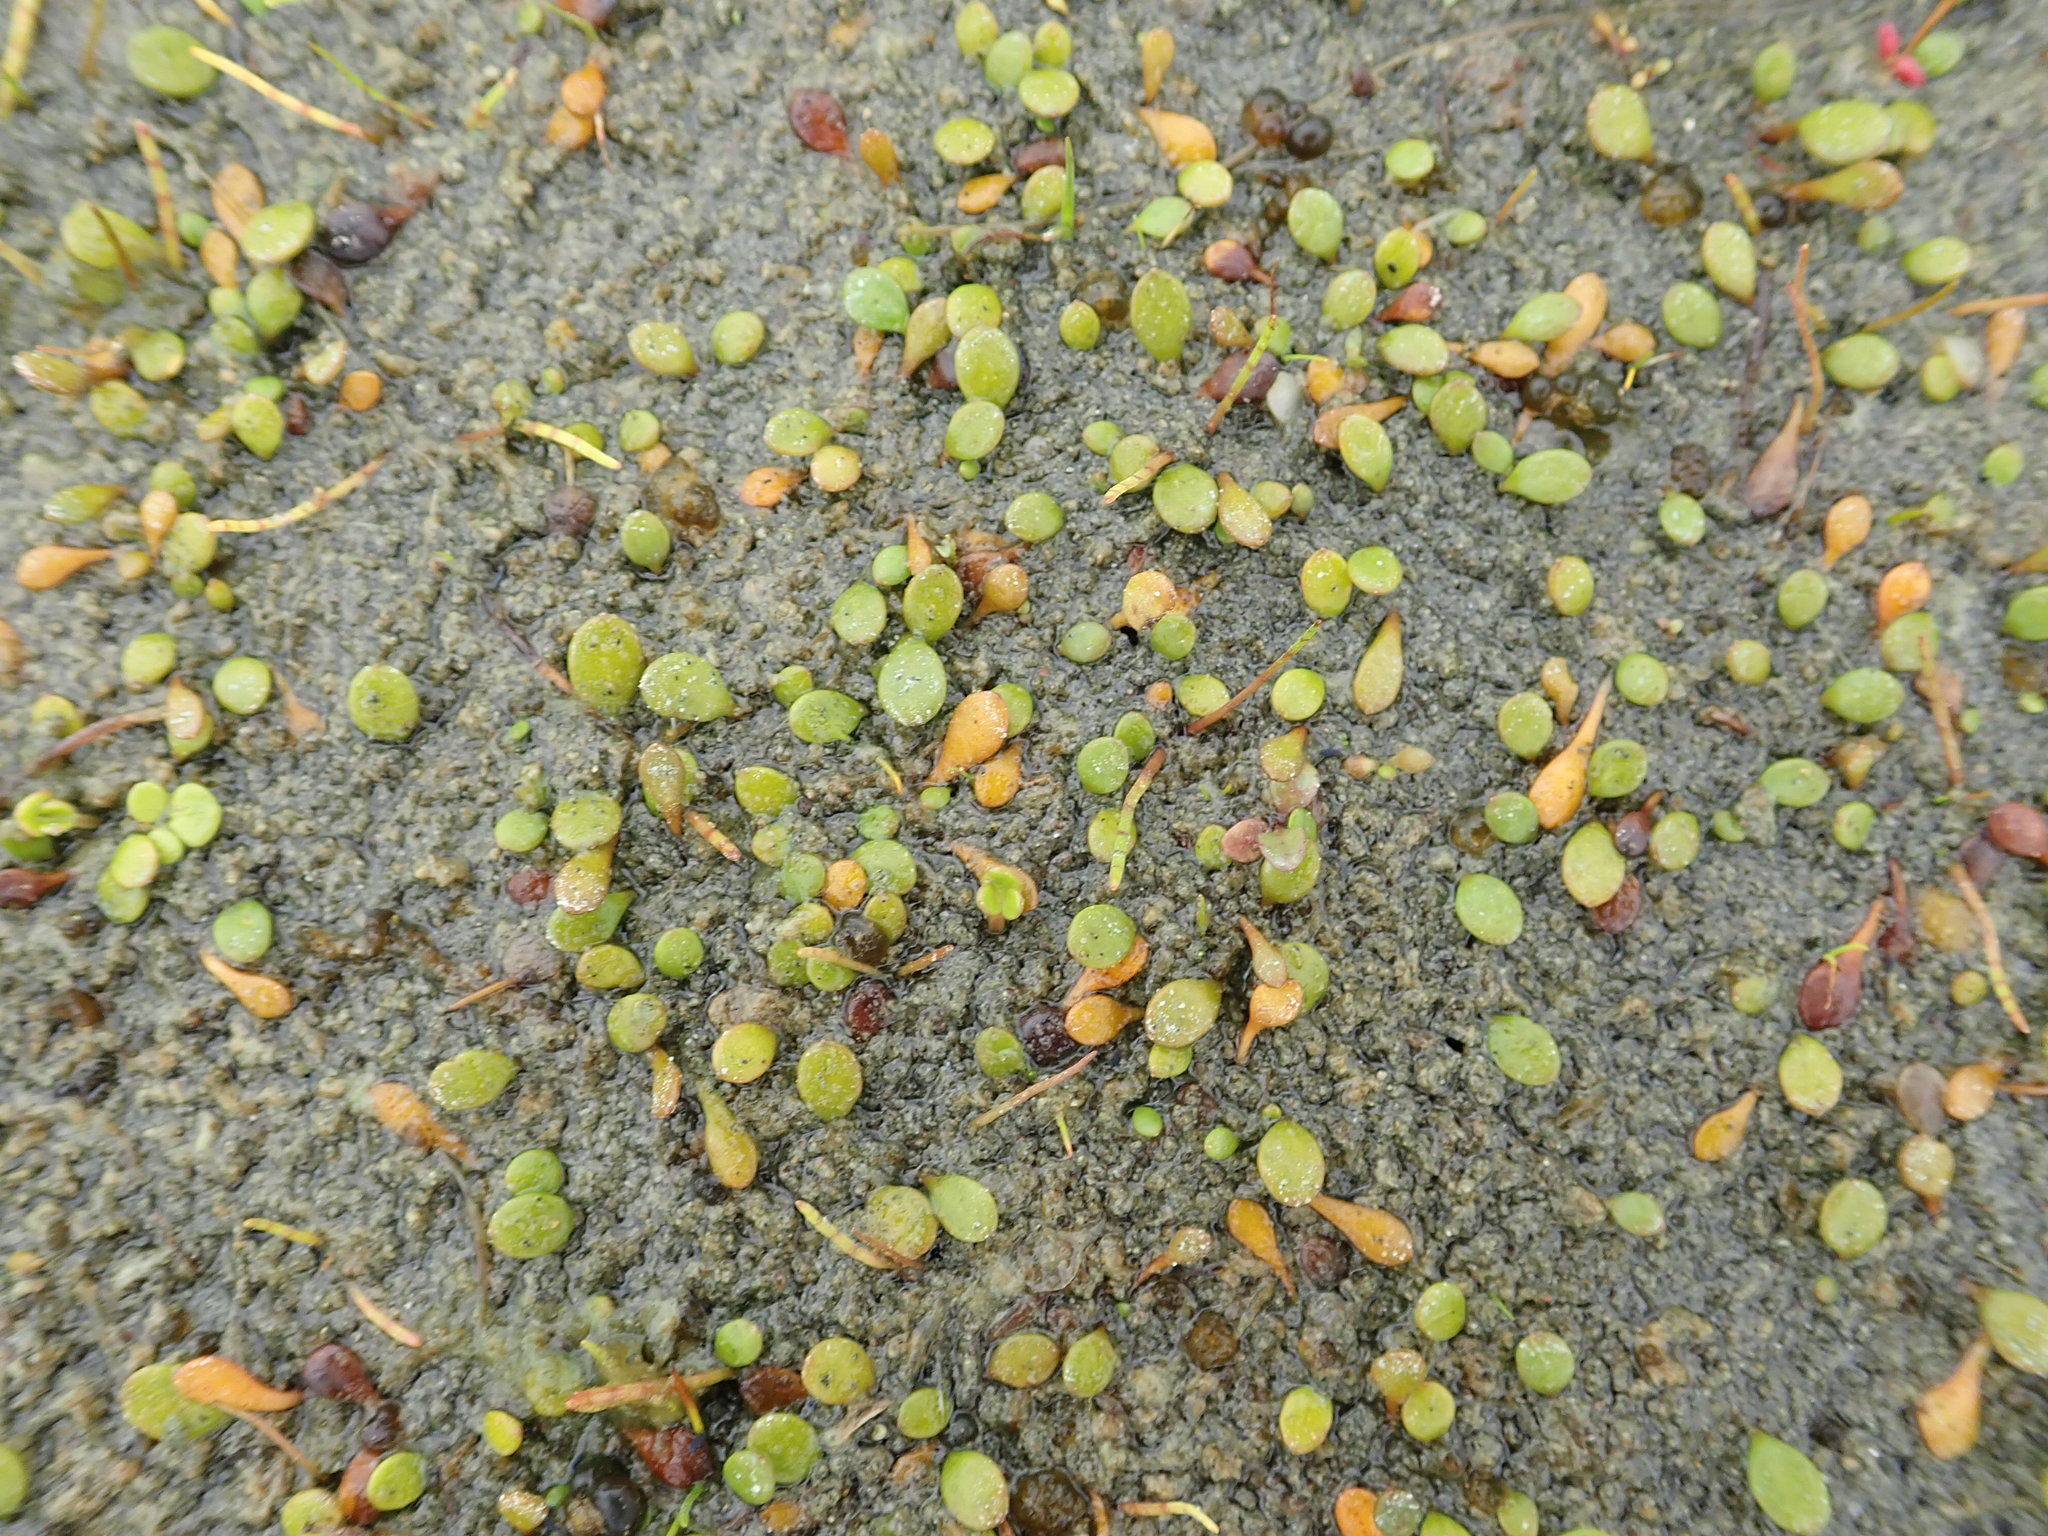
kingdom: Plantae
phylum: Tracheophyta
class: Magnoliopsida
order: Asterales
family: Goodeniaceae
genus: Goodenia
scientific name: Goodenia heenanii
